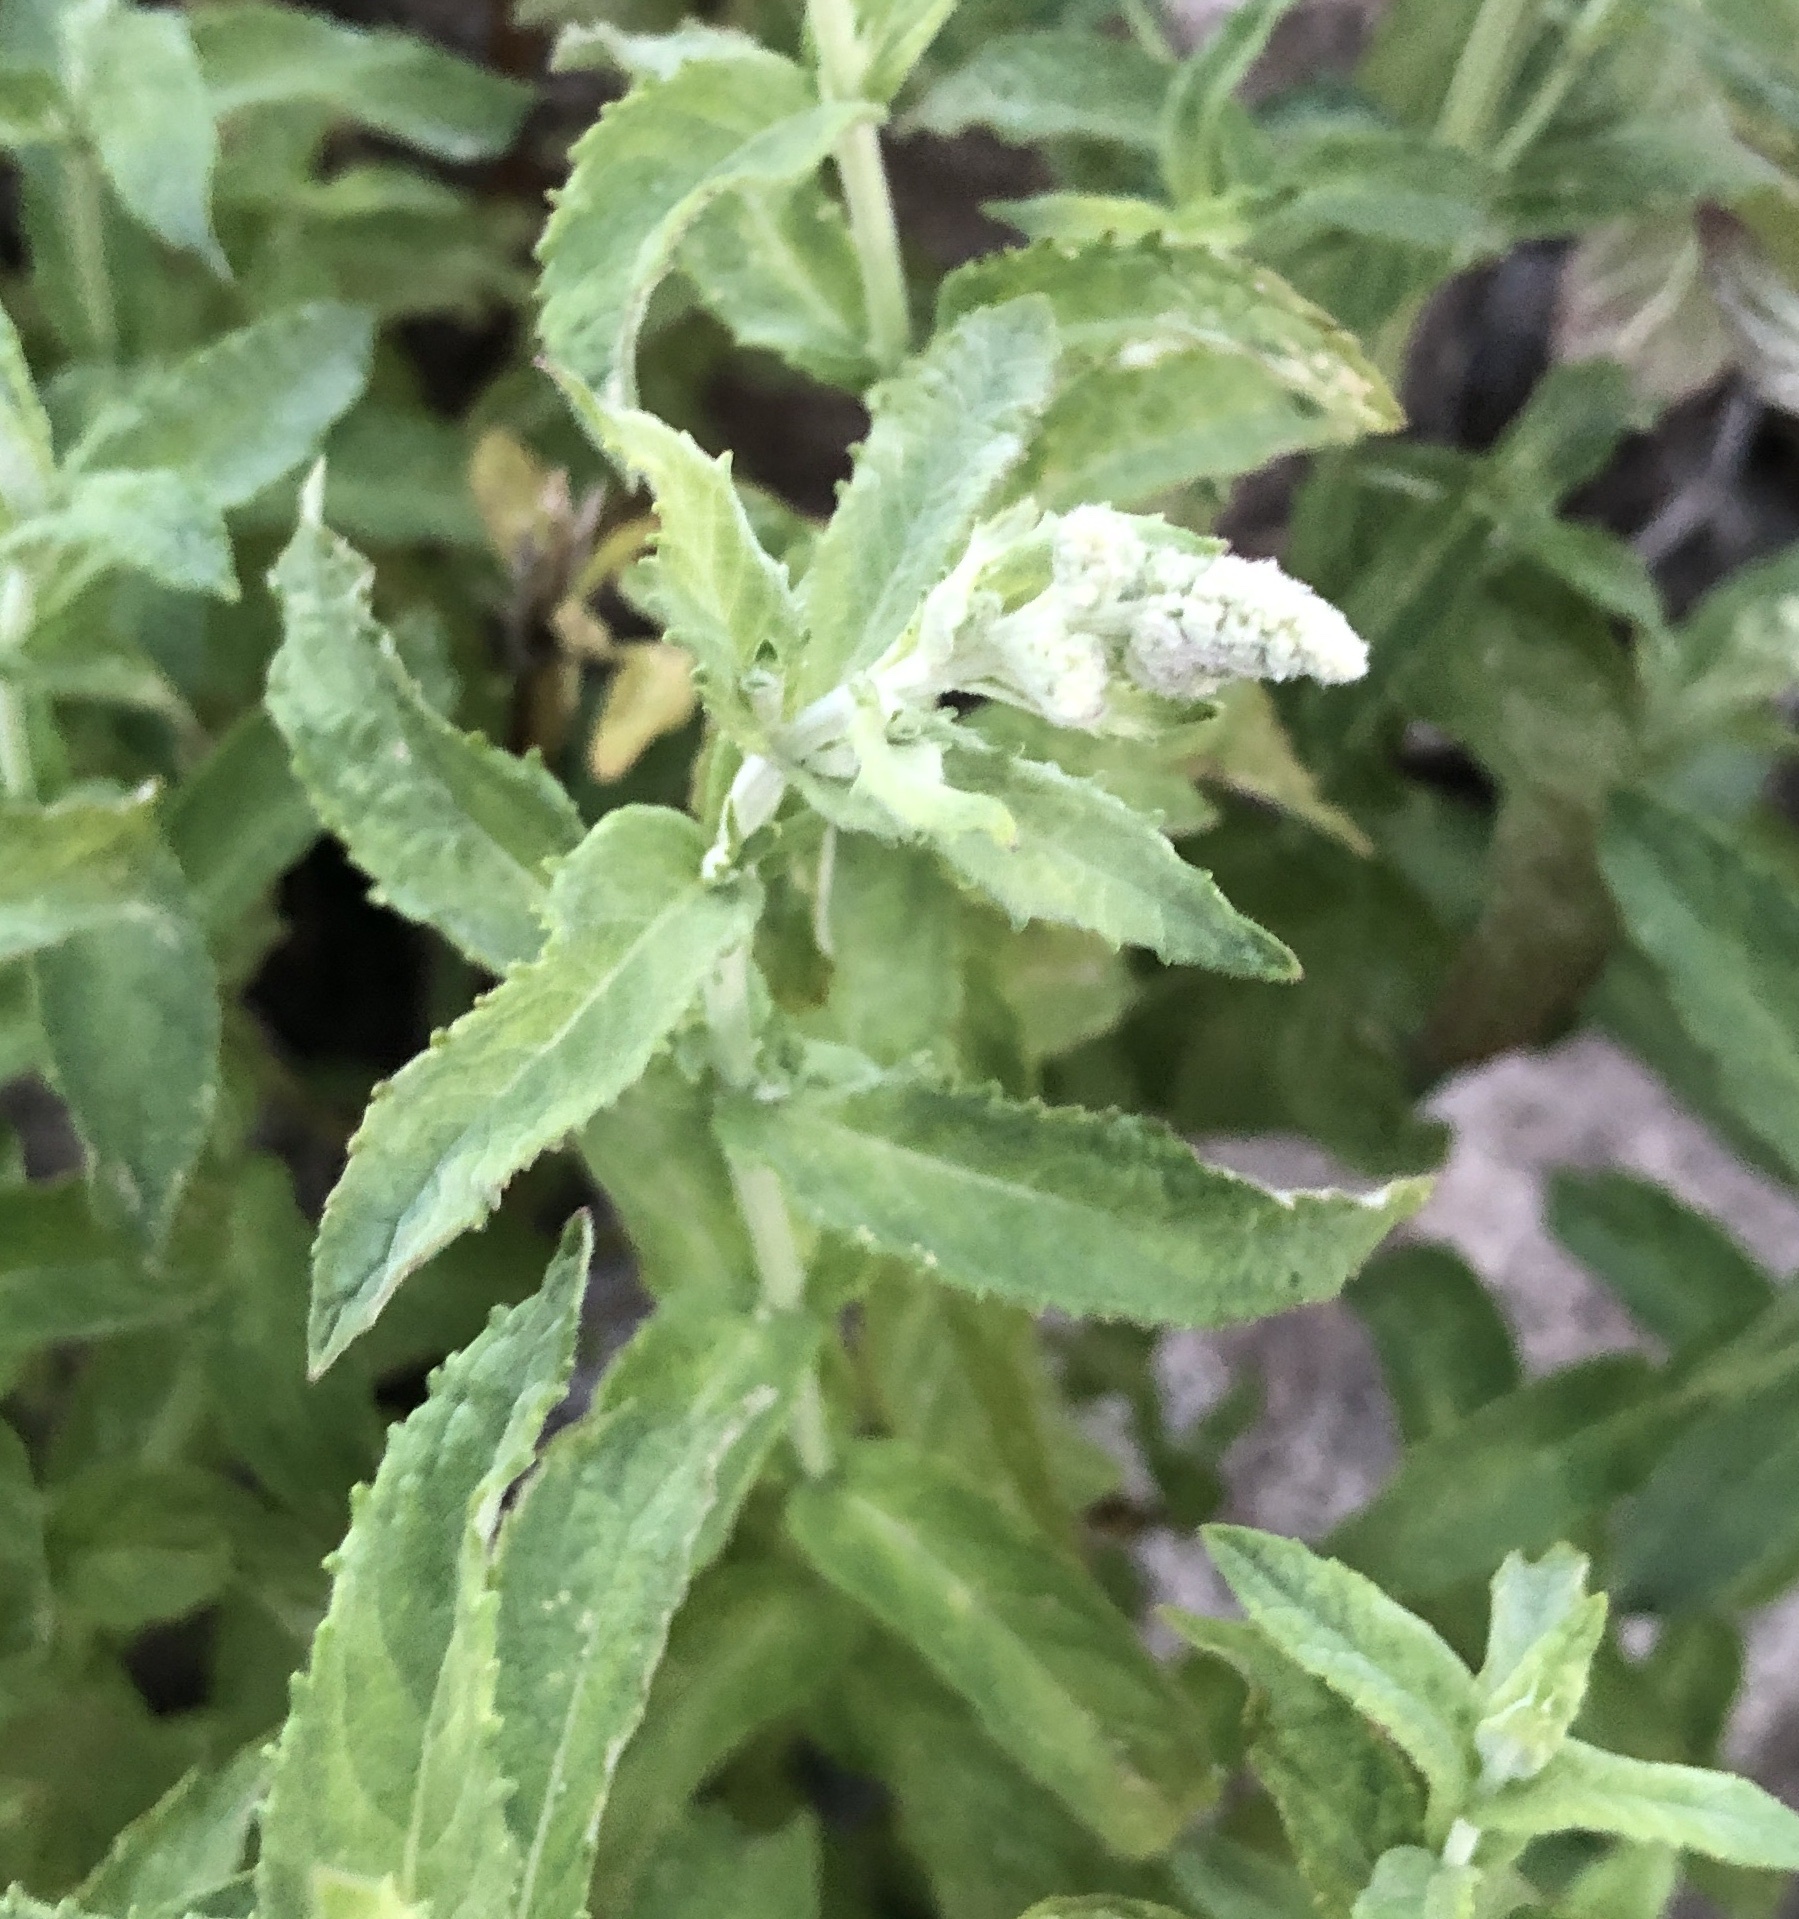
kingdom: Plantae
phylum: Tracheophyta
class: Magnoliopsida
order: Lamiales
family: Lamiaceae
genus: Mentha
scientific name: Mentha longifolia
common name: Horse mint
